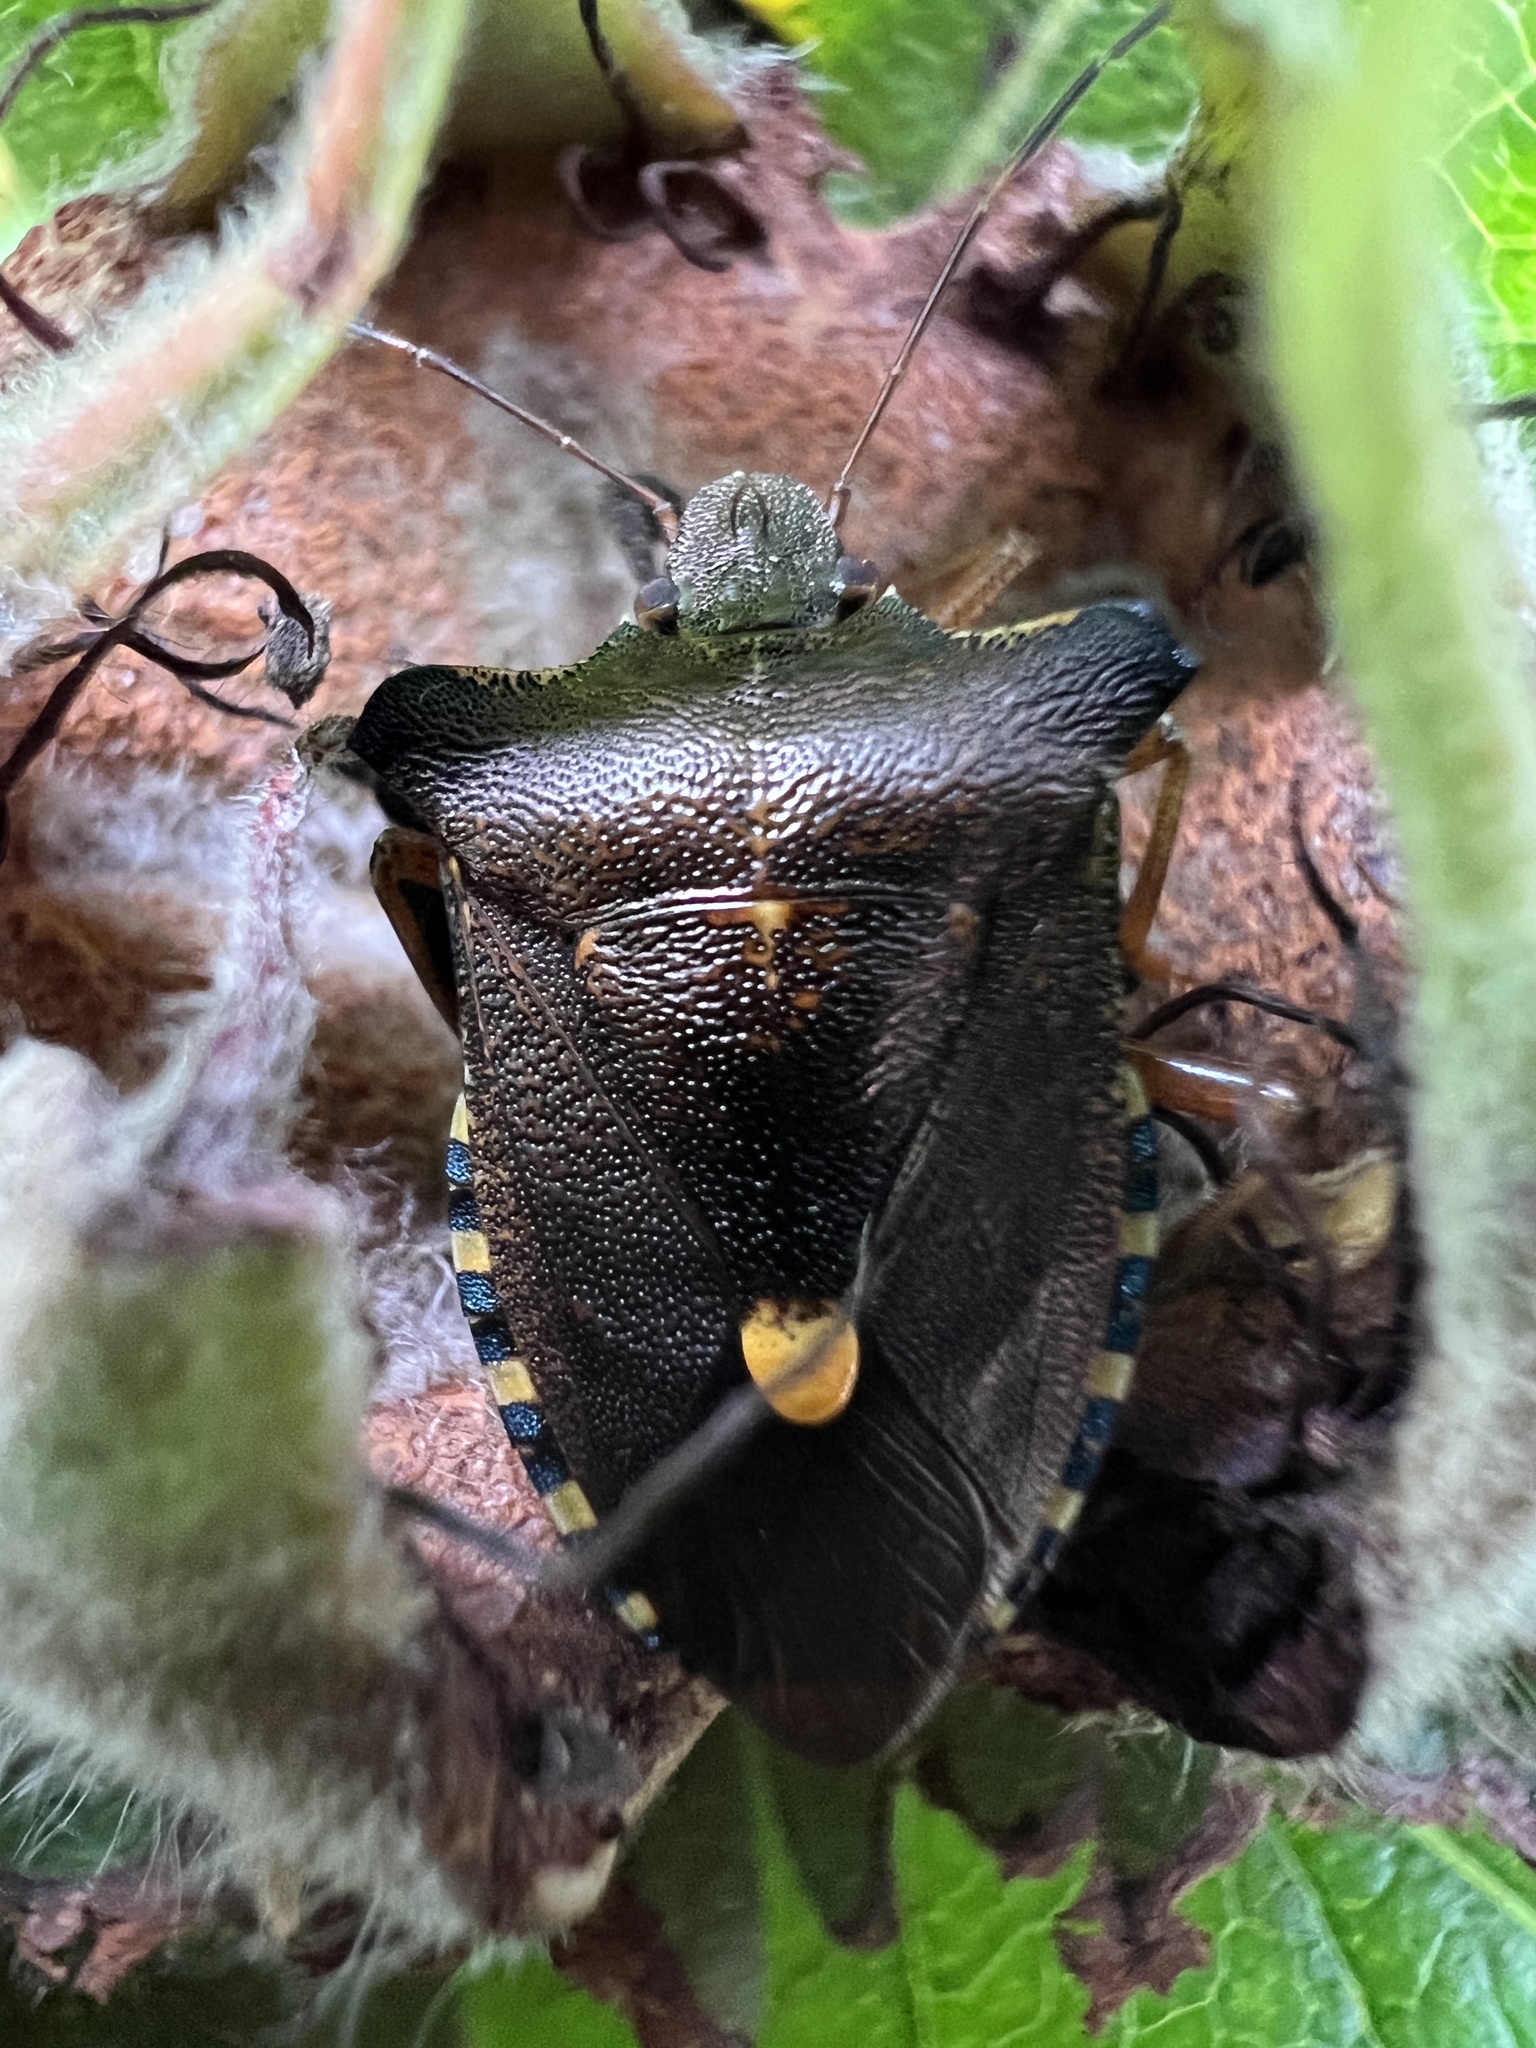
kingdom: Animalia
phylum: Arthropoda
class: Insecta
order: Hemiptera
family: Pentatomidae
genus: Pentatoma
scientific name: Pentatoma rufipes
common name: Forest bug
